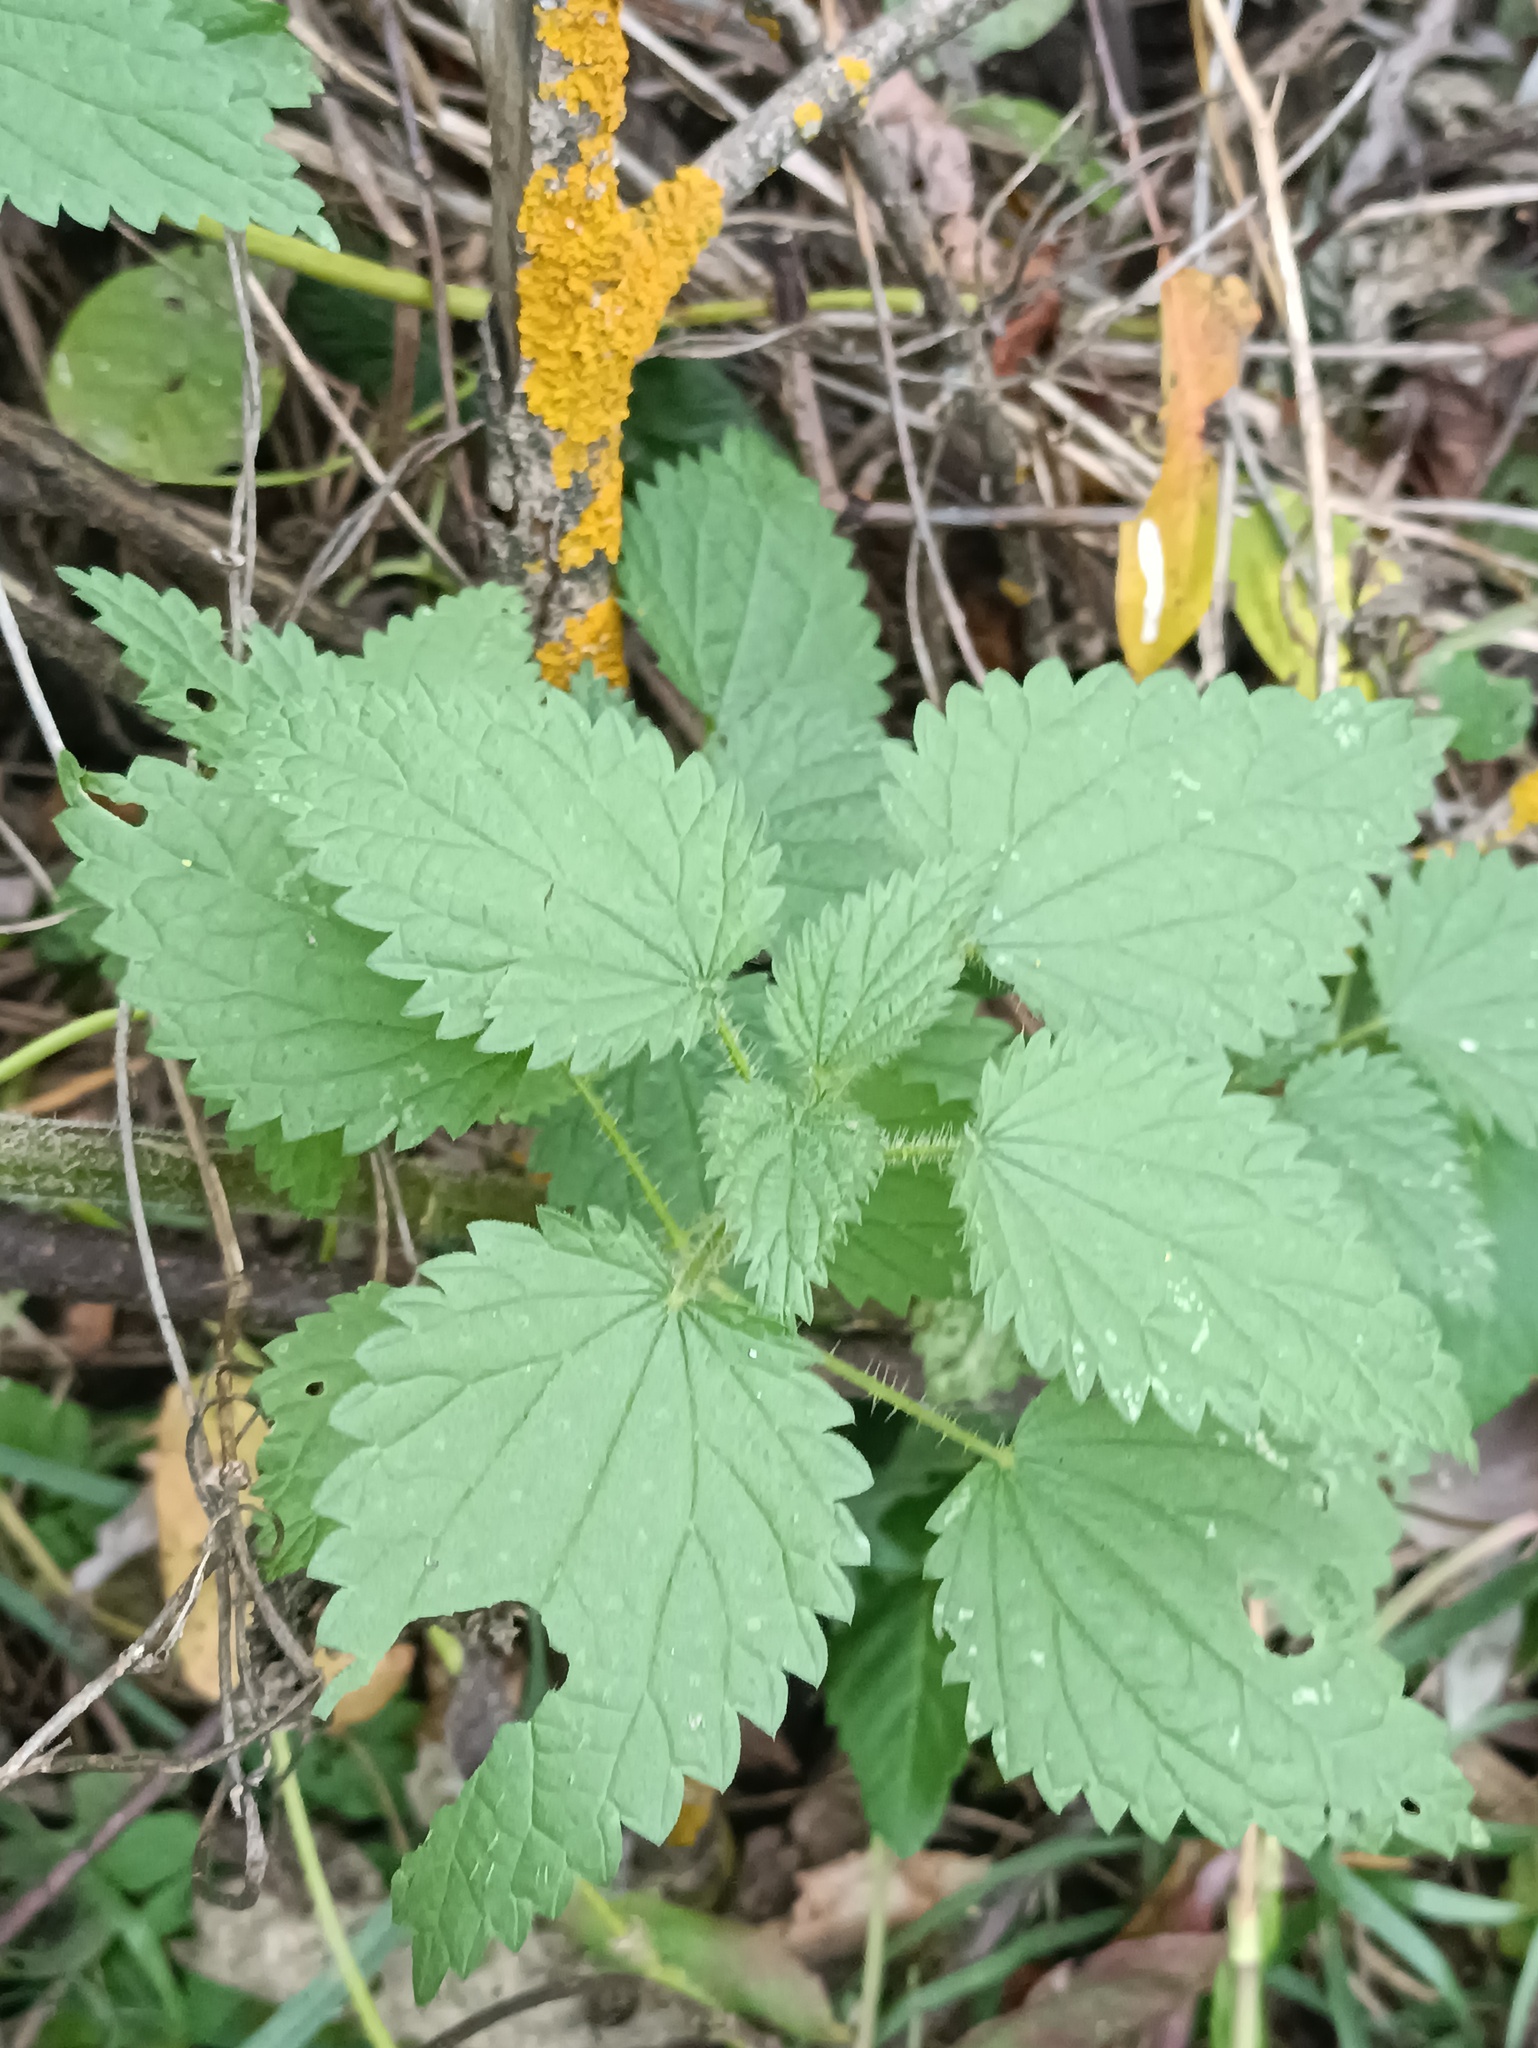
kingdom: Plantae
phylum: Tracheophyta
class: Magnoliopsida
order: Rosales
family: Urticaceae
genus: Urtica
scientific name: Urtica dioica
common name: Common nettle
